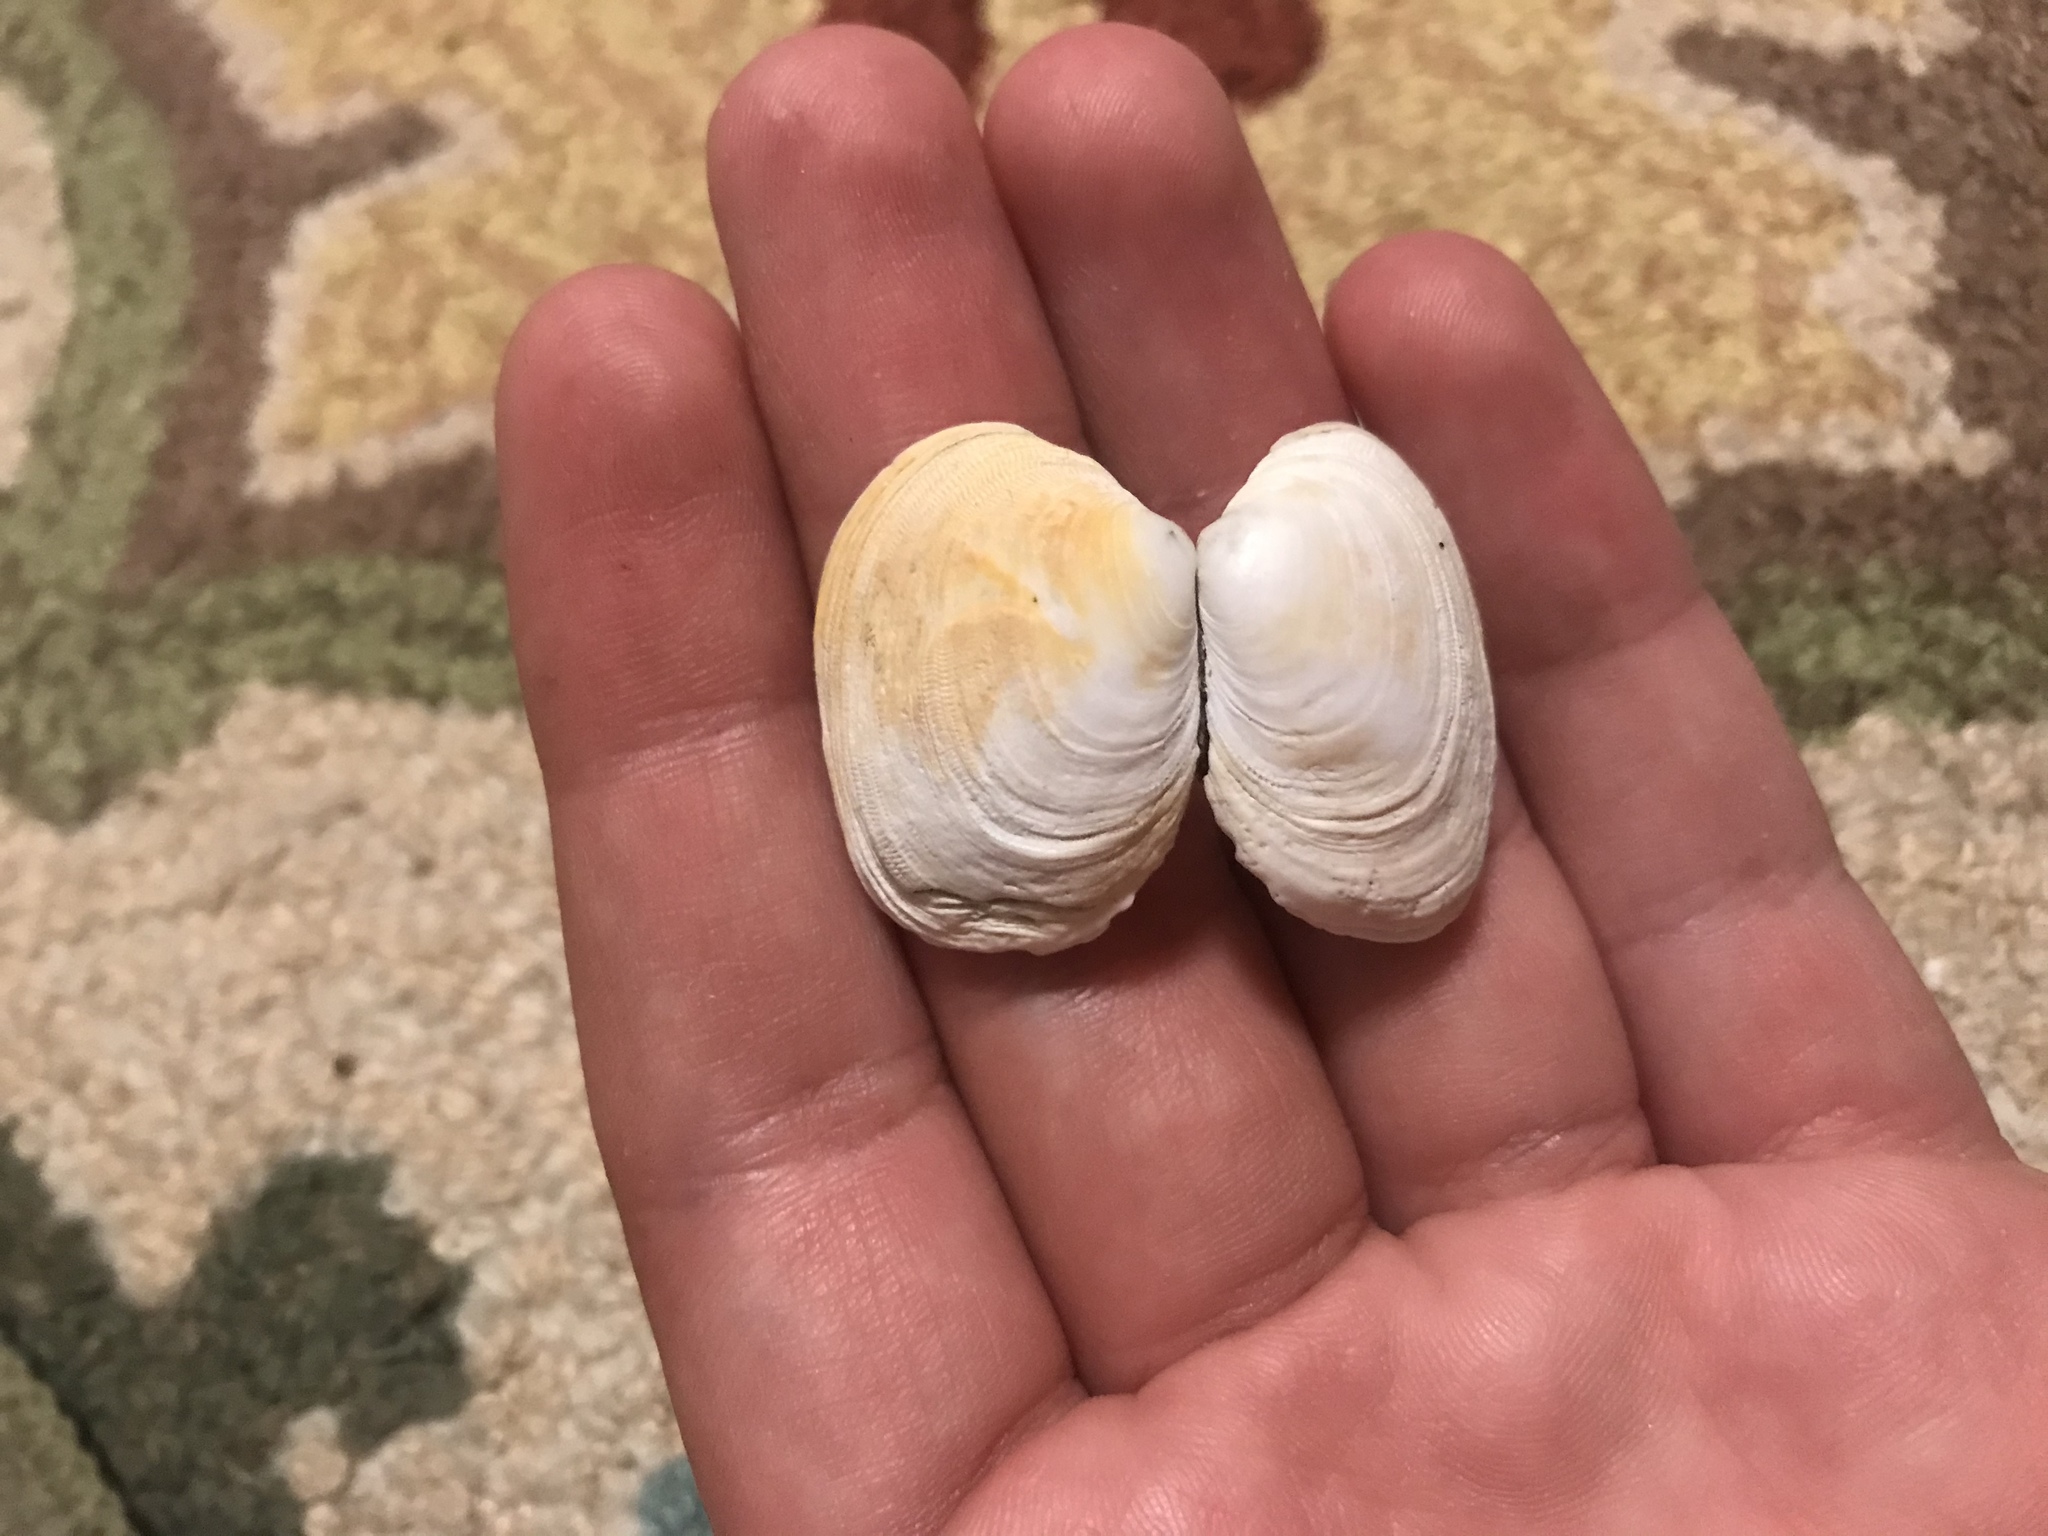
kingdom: Animalia
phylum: Mollusca
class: Bivalvia
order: Venerida
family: Veneridae
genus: Petricola
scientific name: Petricola carditoides
